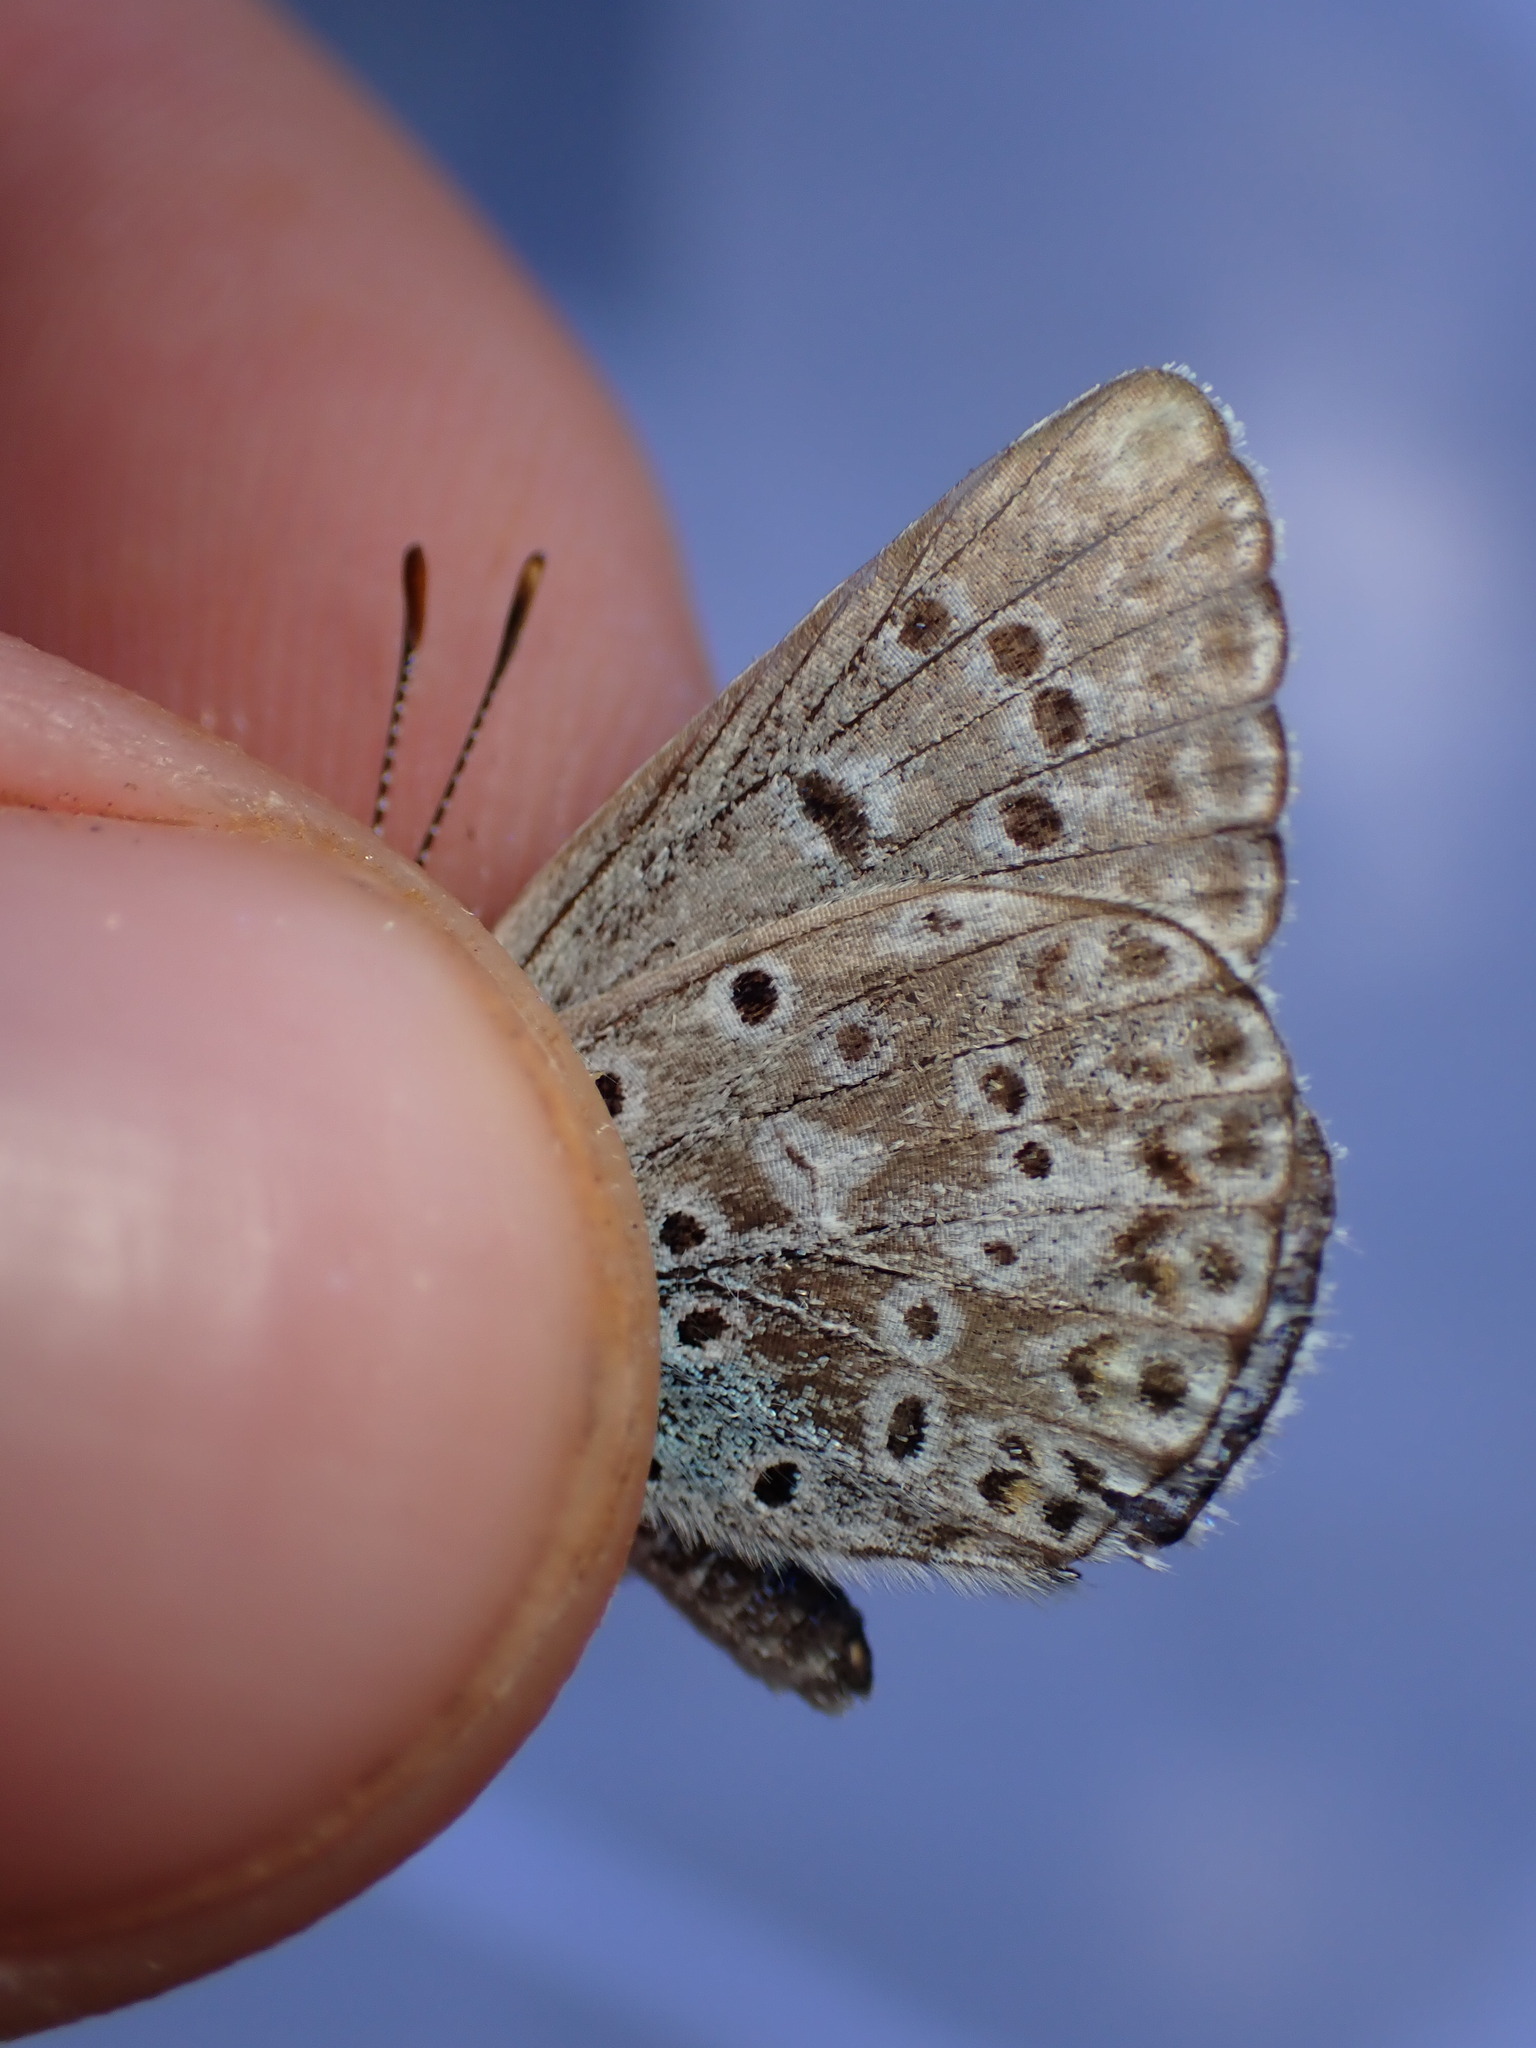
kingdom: Animalia
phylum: Arthropoda
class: Insecta
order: Lepidoptera
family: Lycaenidae
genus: Polyommatus
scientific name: Polyommatus icarus
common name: Common blue
